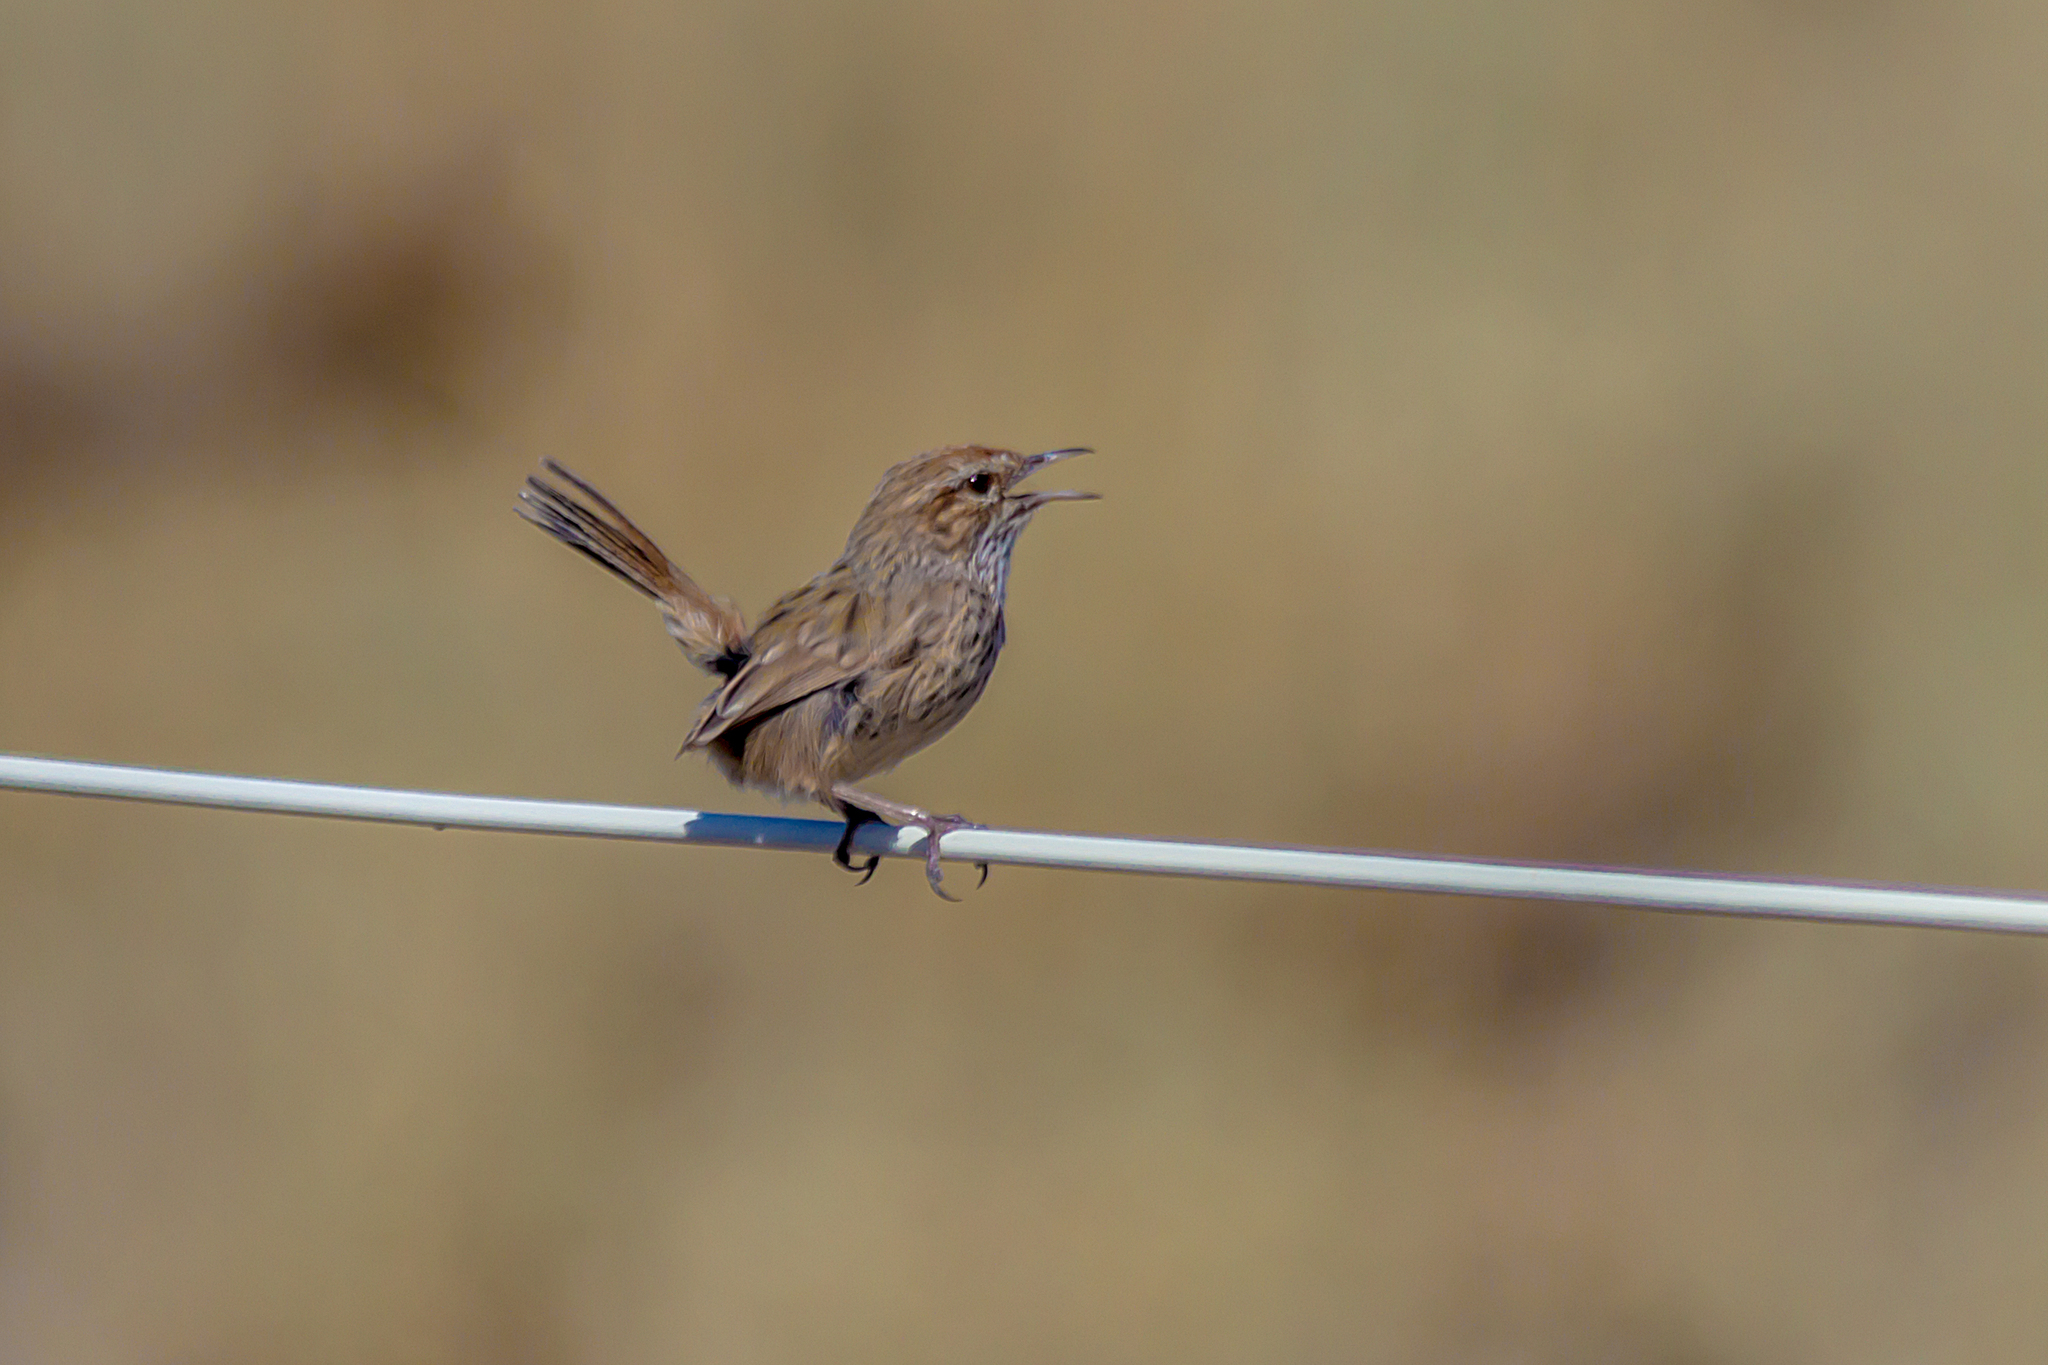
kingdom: Animalia
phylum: Chordata
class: Aves
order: Passeriformes
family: Acanthizidae
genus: Calamanthus
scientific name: Calamanthus campestris
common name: Rufous fieldwren
